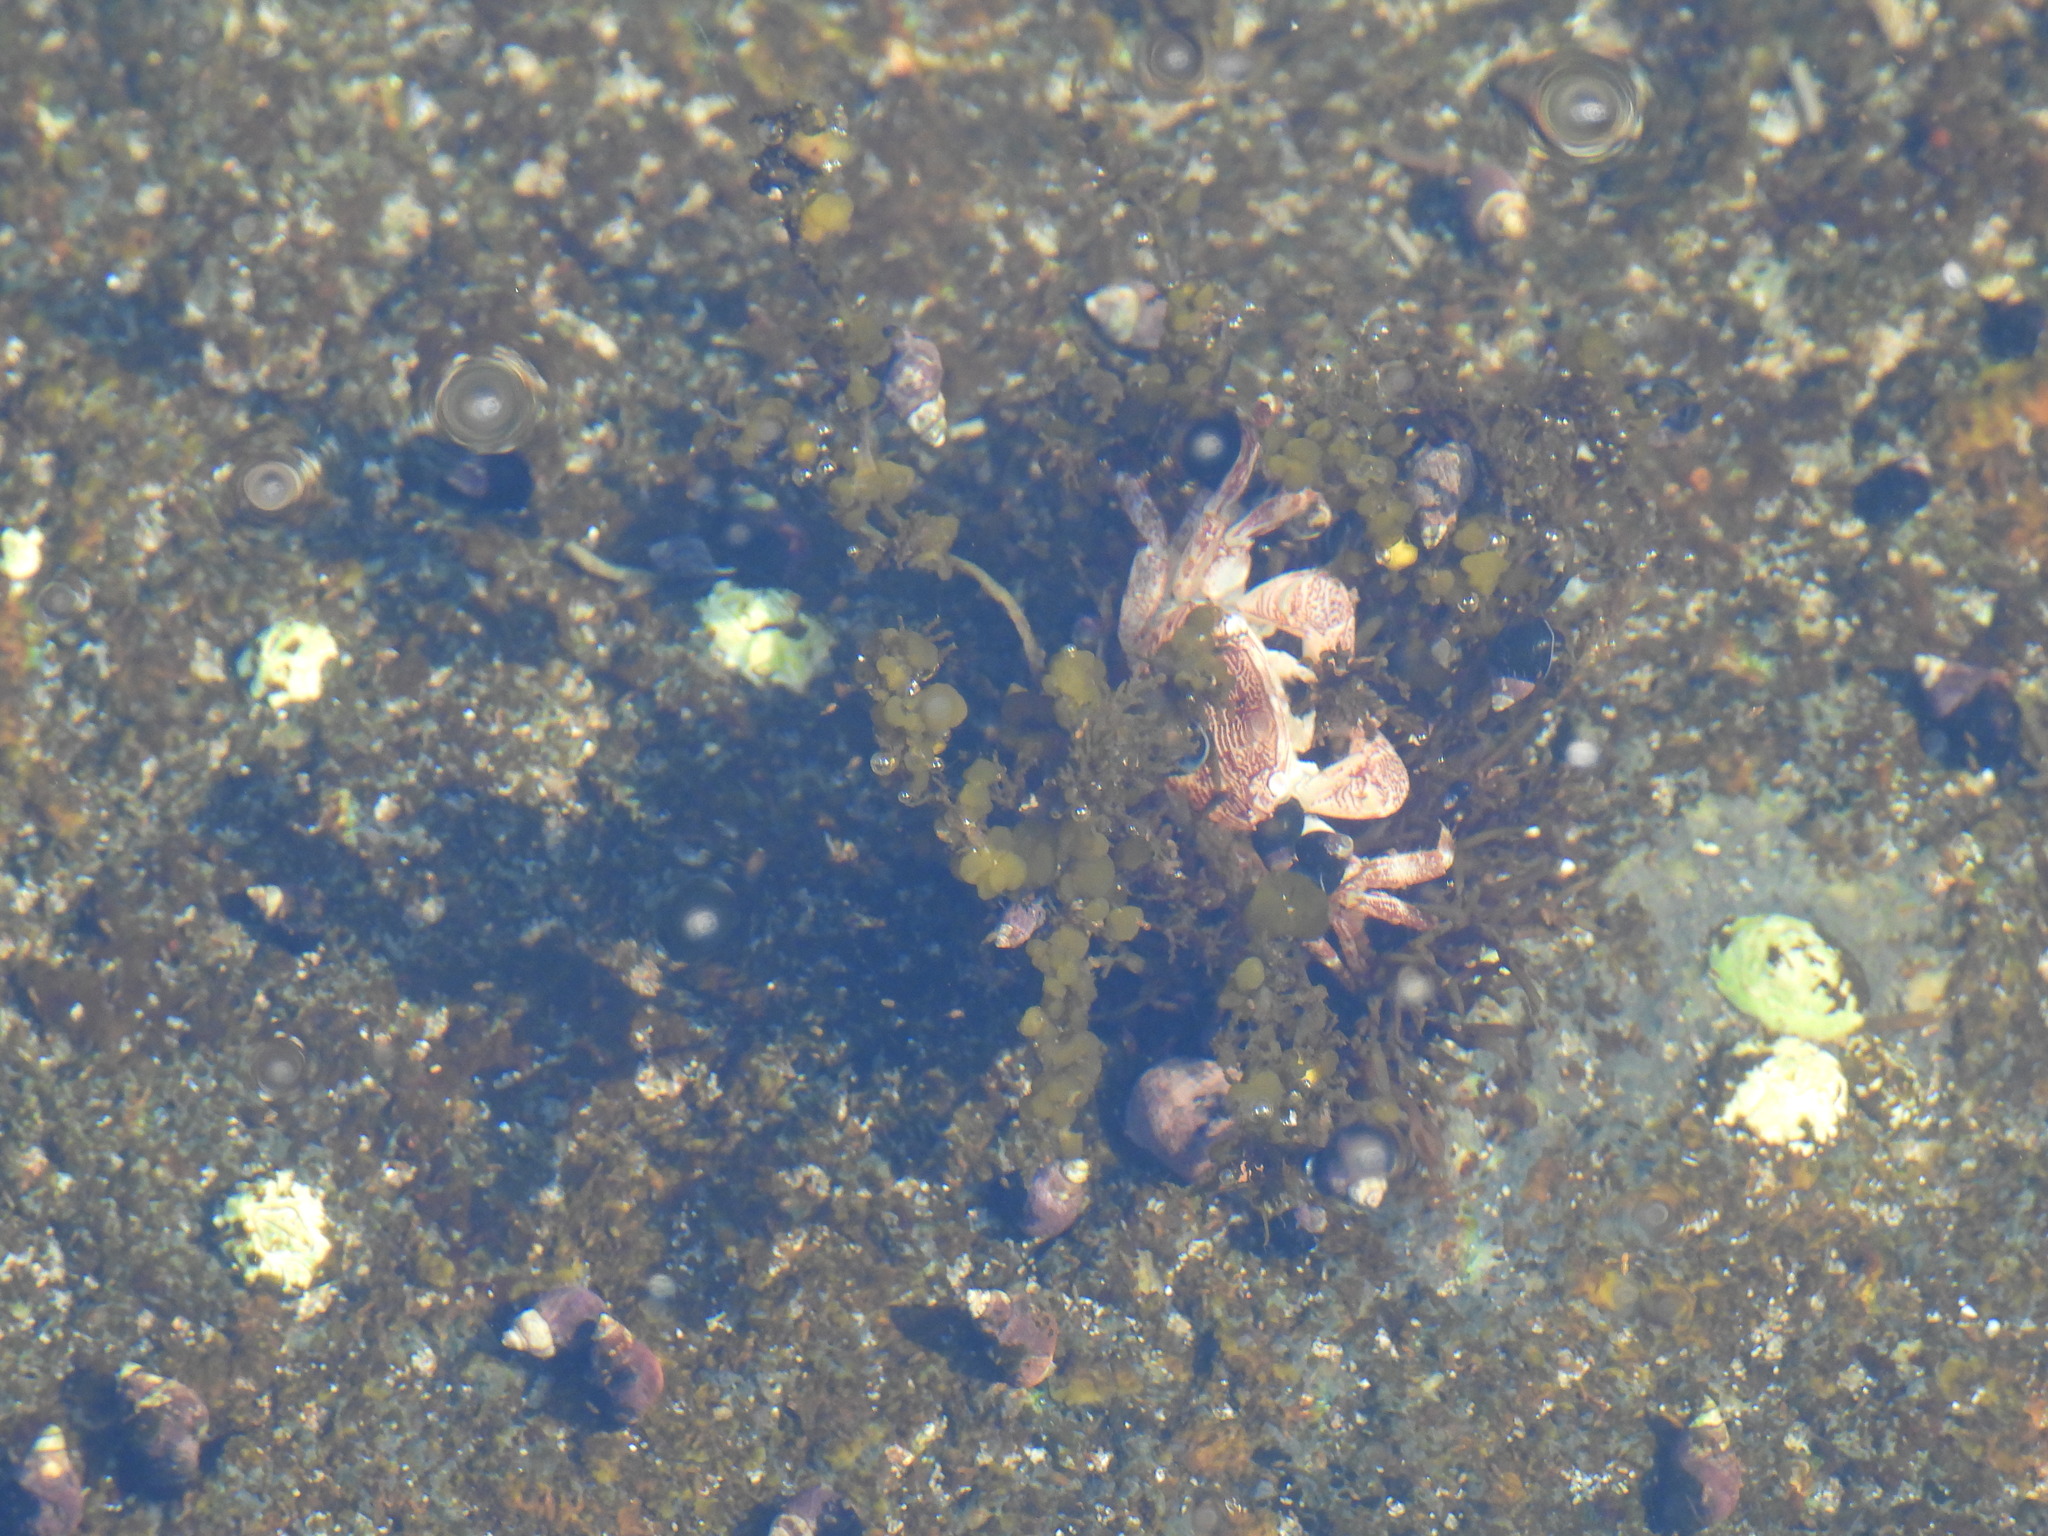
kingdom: Animalia
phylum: Arthropoda
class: Malacostraca
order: Decapoda
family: Grapsidae
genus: Pachygrapsus
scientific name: Pachygrapsus crassipes
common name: Striped shore crab
